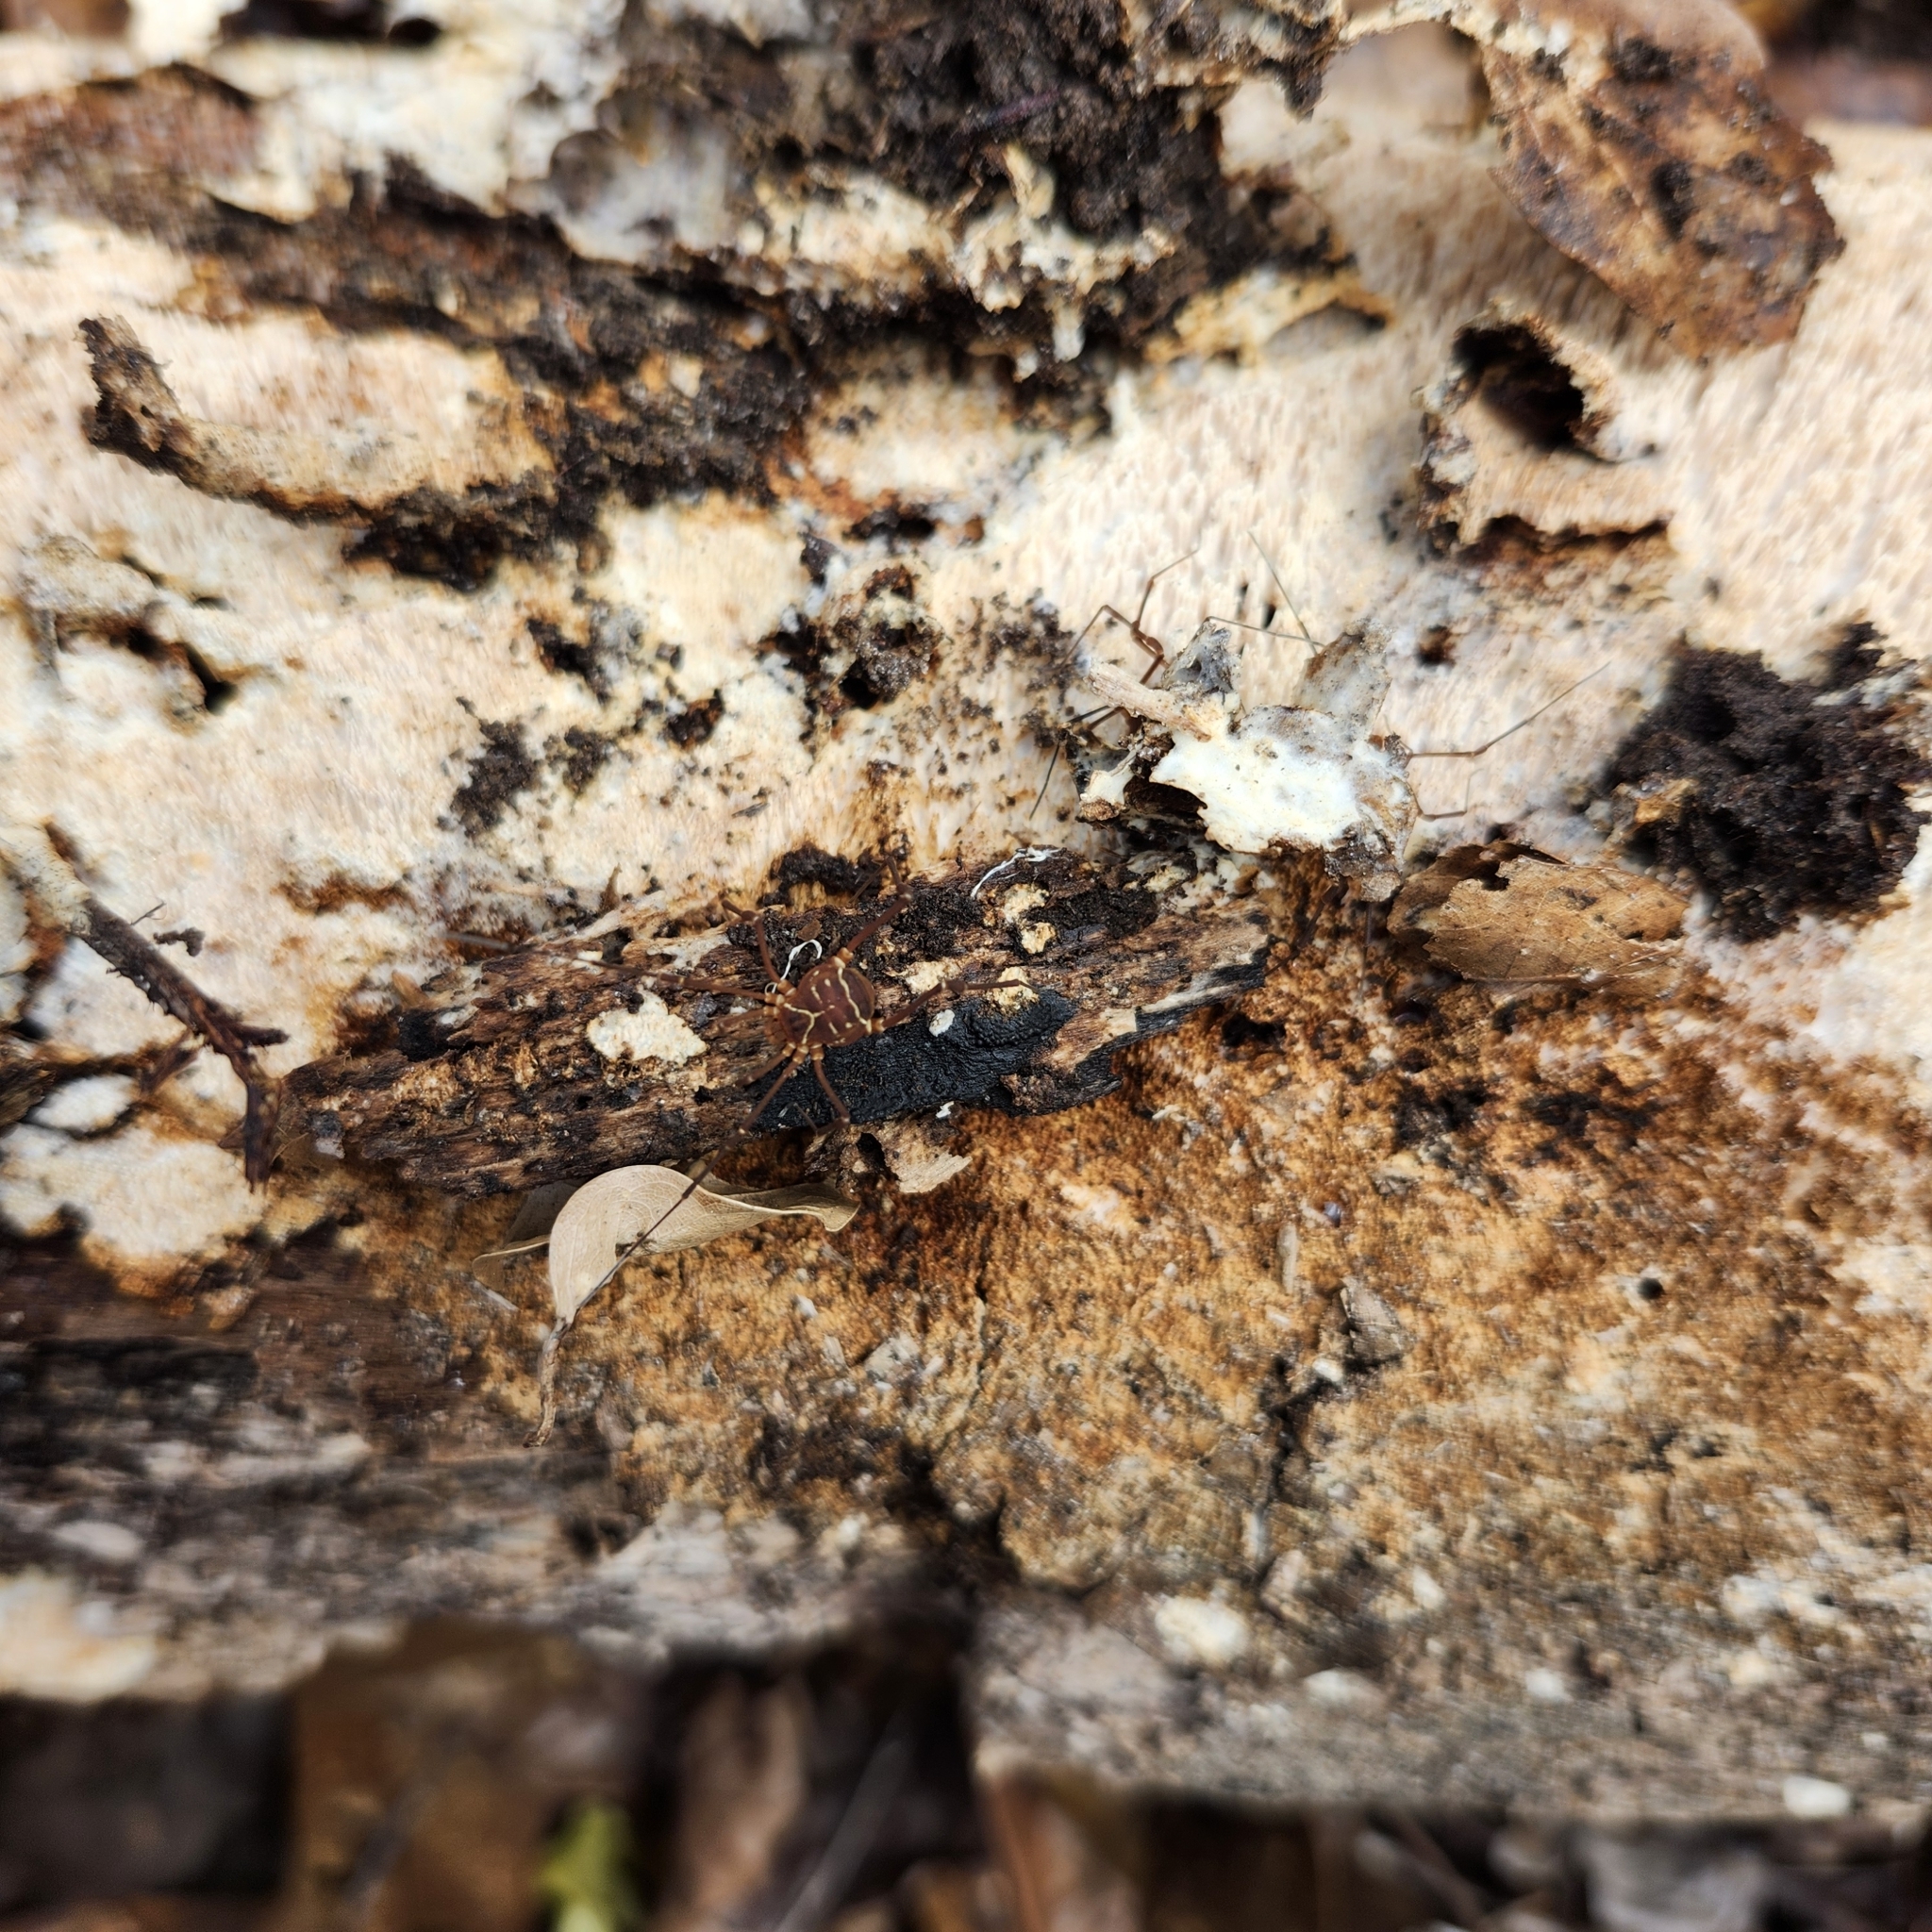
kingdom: Animalia
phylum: Arthropoda
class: Arachnida
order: Opiliones
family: Cosmetidae
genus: Libitioides
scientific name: Libitioides sayi
